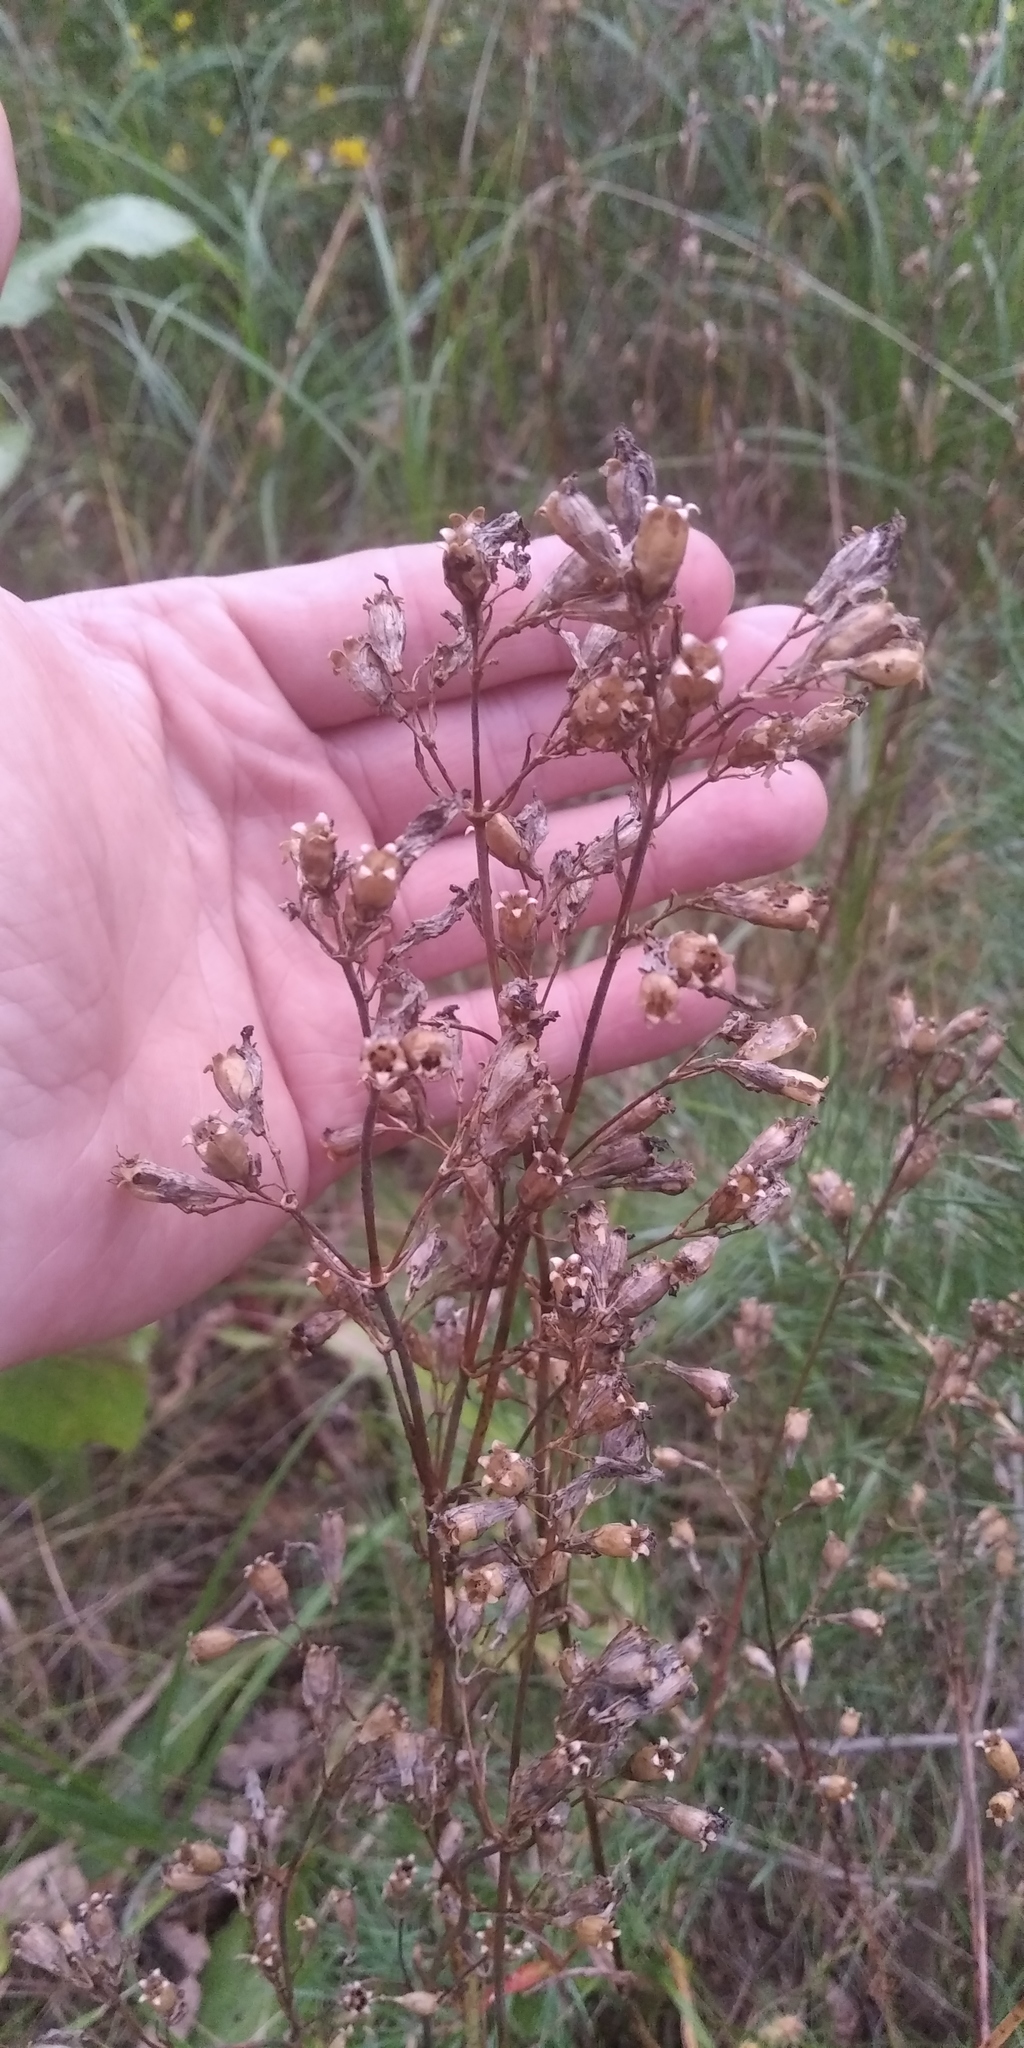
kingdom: Plantae
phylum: Tracheophyta
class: Magnoliopsida
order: Caryophyllales
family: Caryophyllaceae
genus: Viscaria
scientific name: Viscaria vulgaris
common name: Clammy campion
